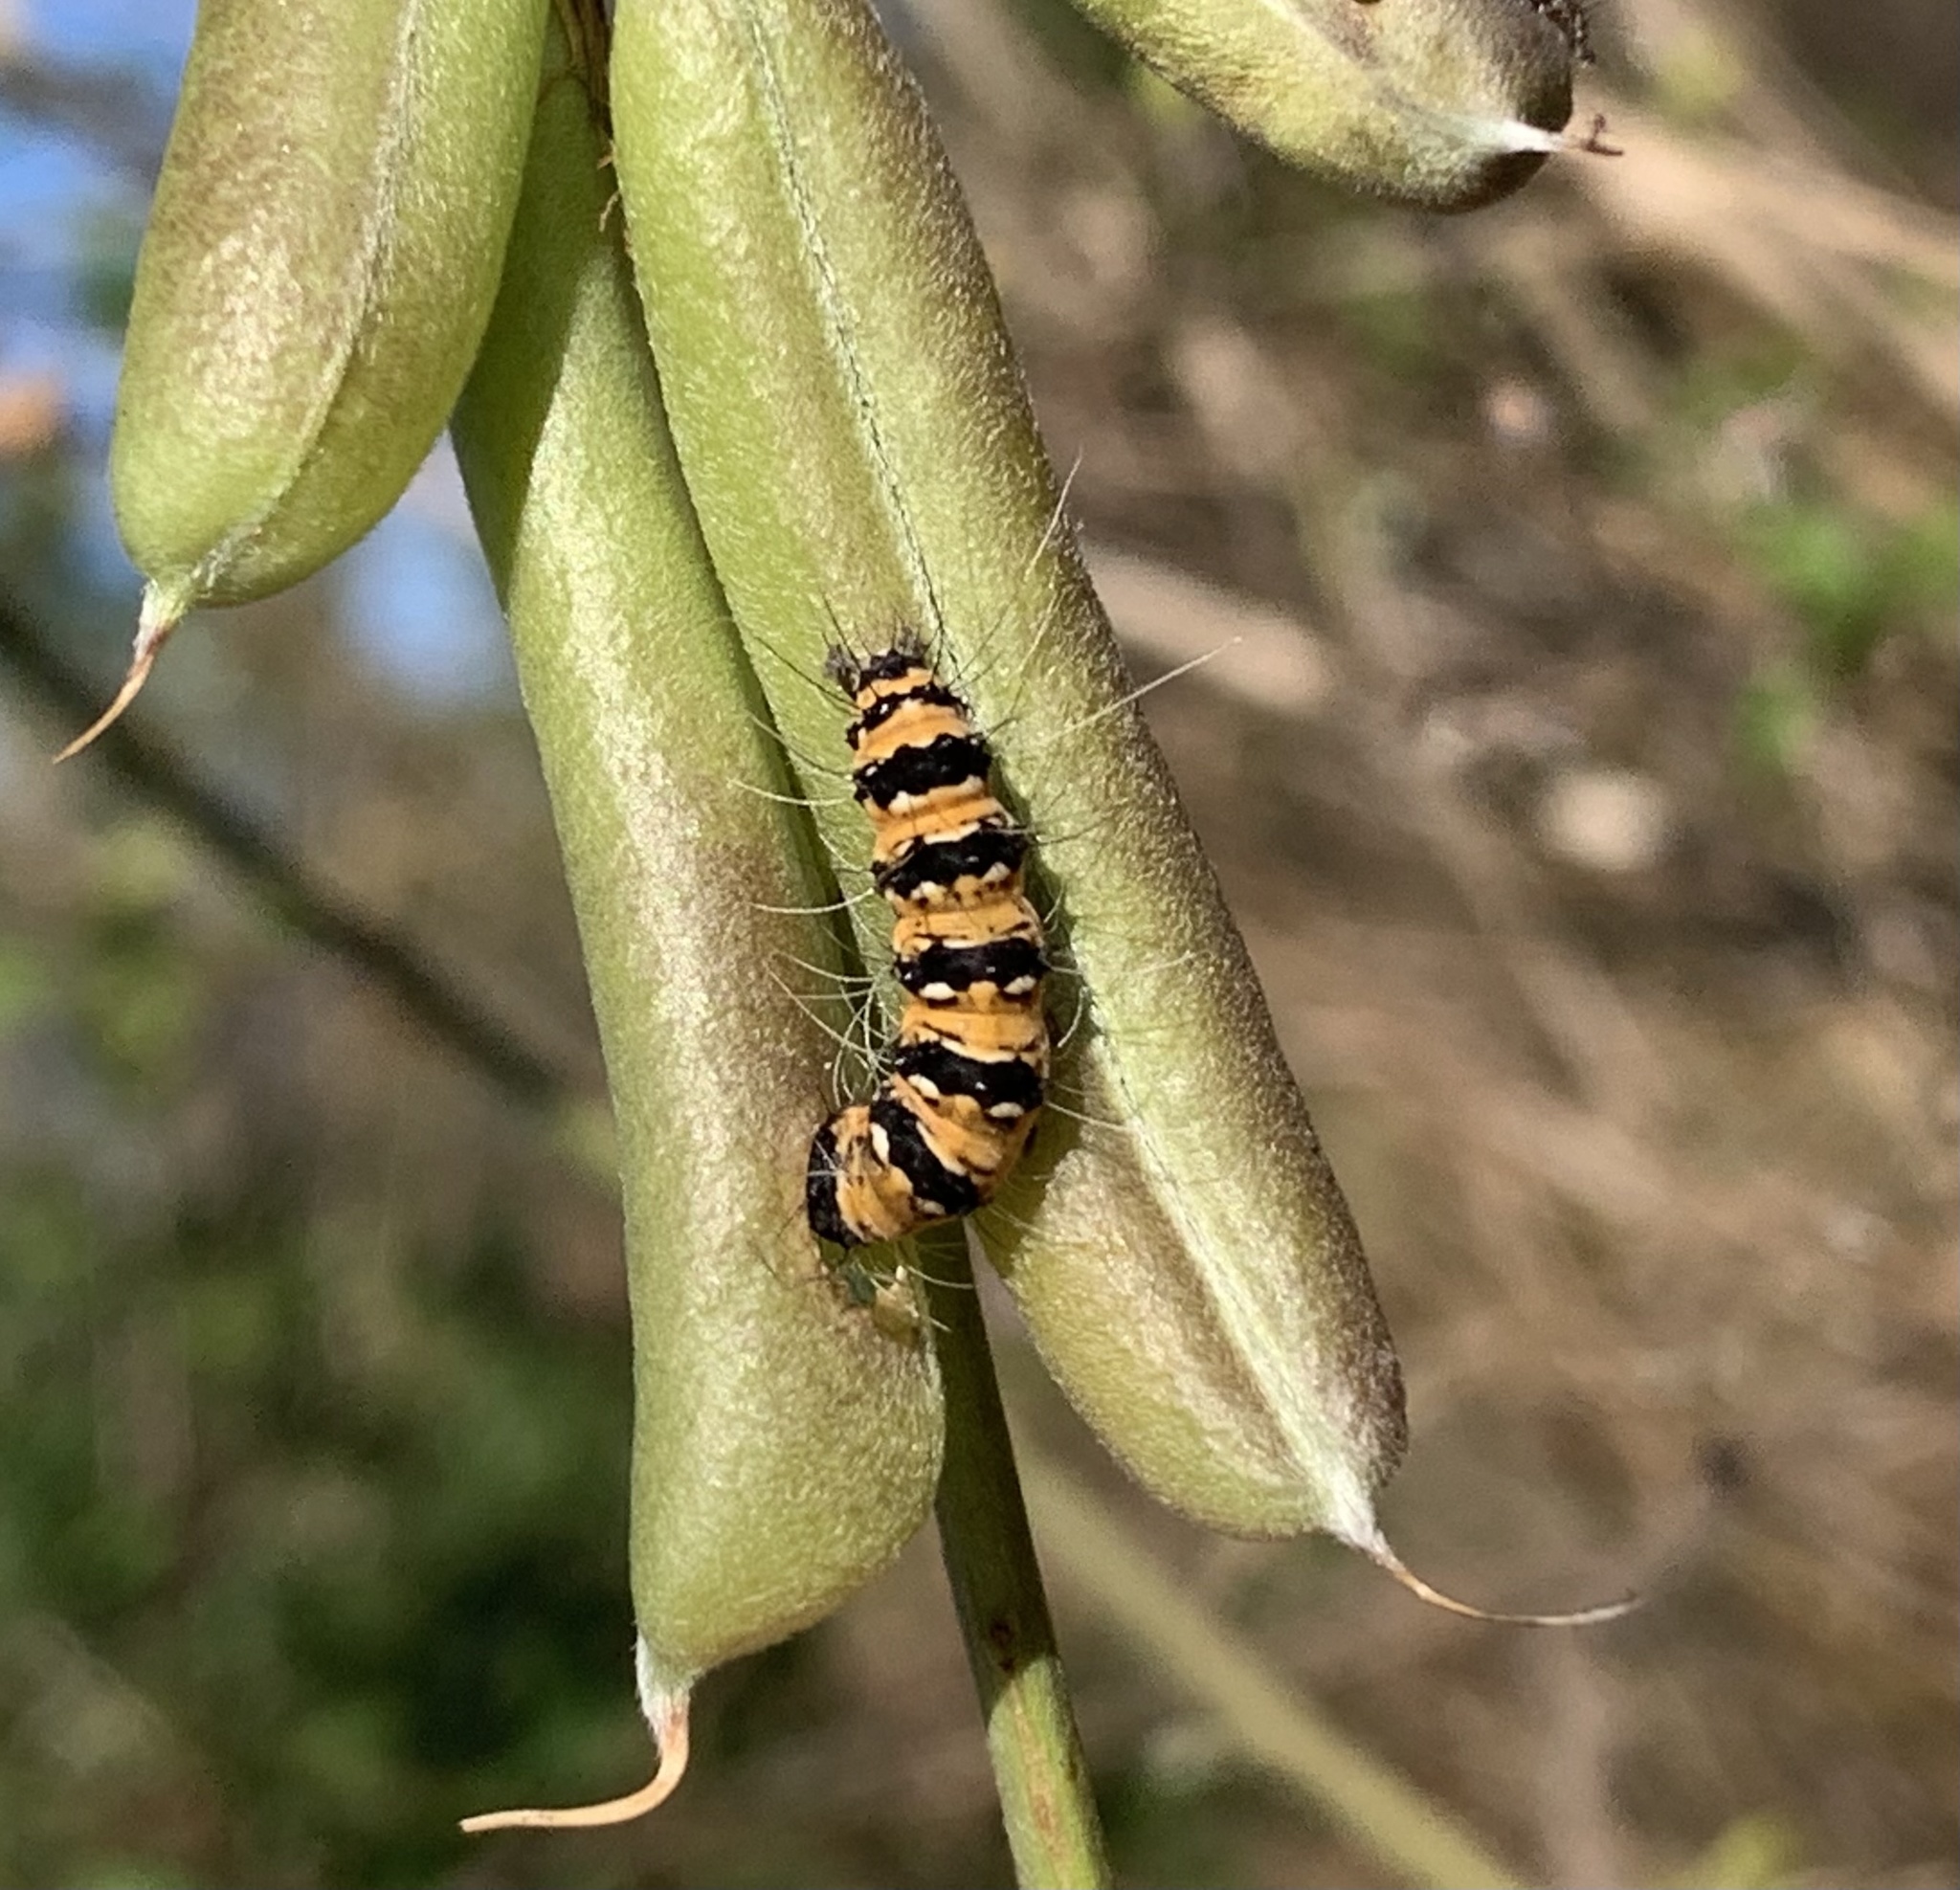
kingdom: Animalia
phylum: Arthropoda
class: Insecta
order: Lepidoptera
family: Erebidae
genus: Utetheisa
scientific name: Utetheisa ornatrix
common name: Beautiful utetheisa
